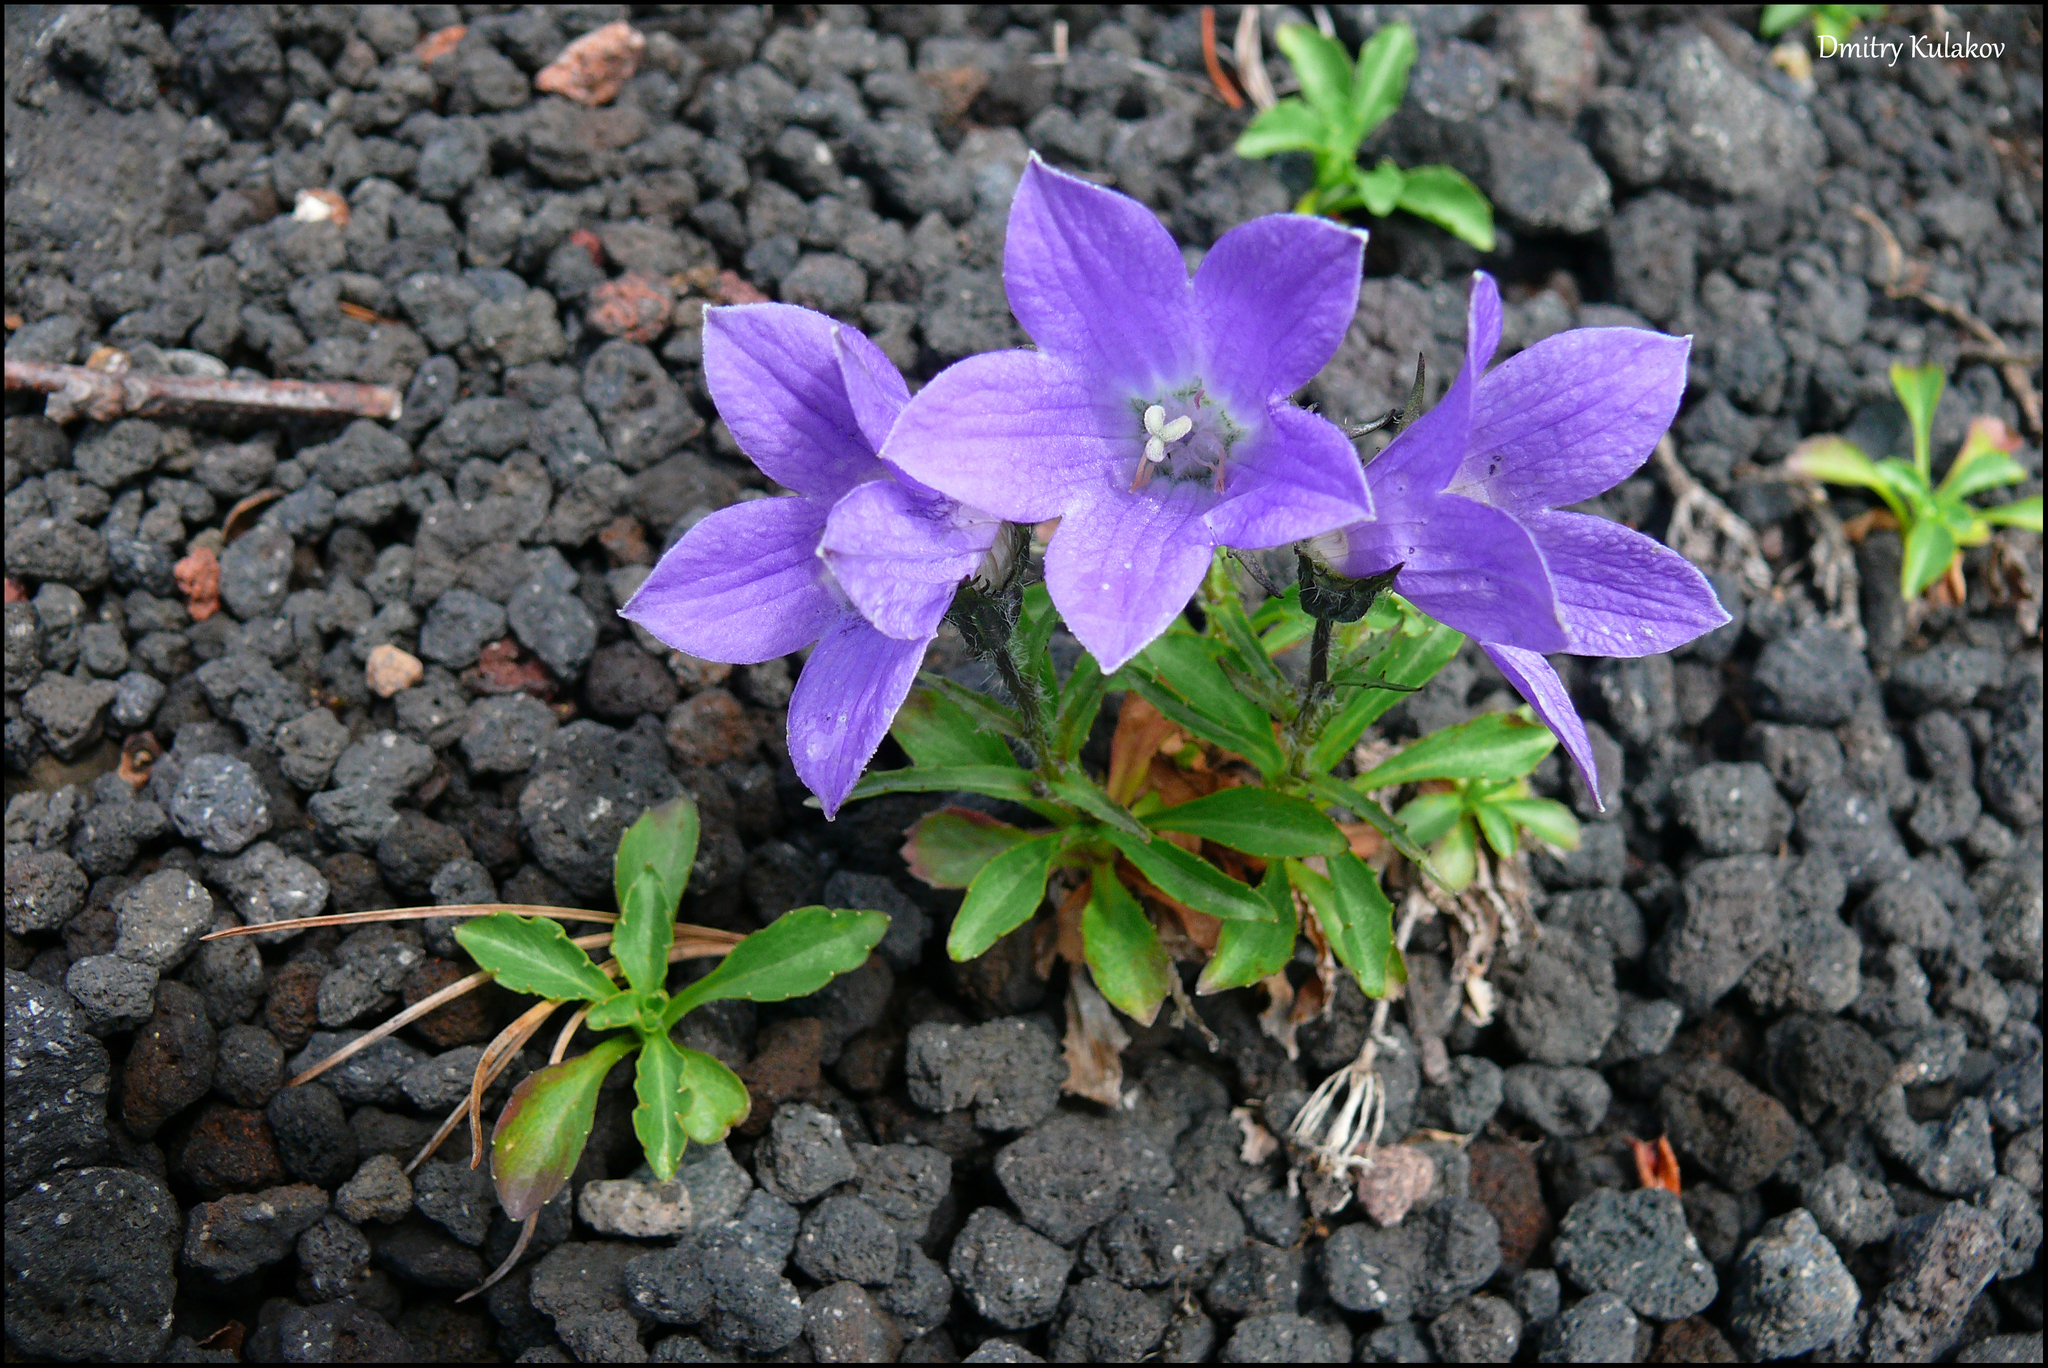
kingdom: Plantae
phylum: Tracheophyta
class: Magnoliopsida
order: Asterales
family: Campanulaceae
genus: Campanula
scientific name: Campanula lasiocarpa
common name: Mountain harebell
